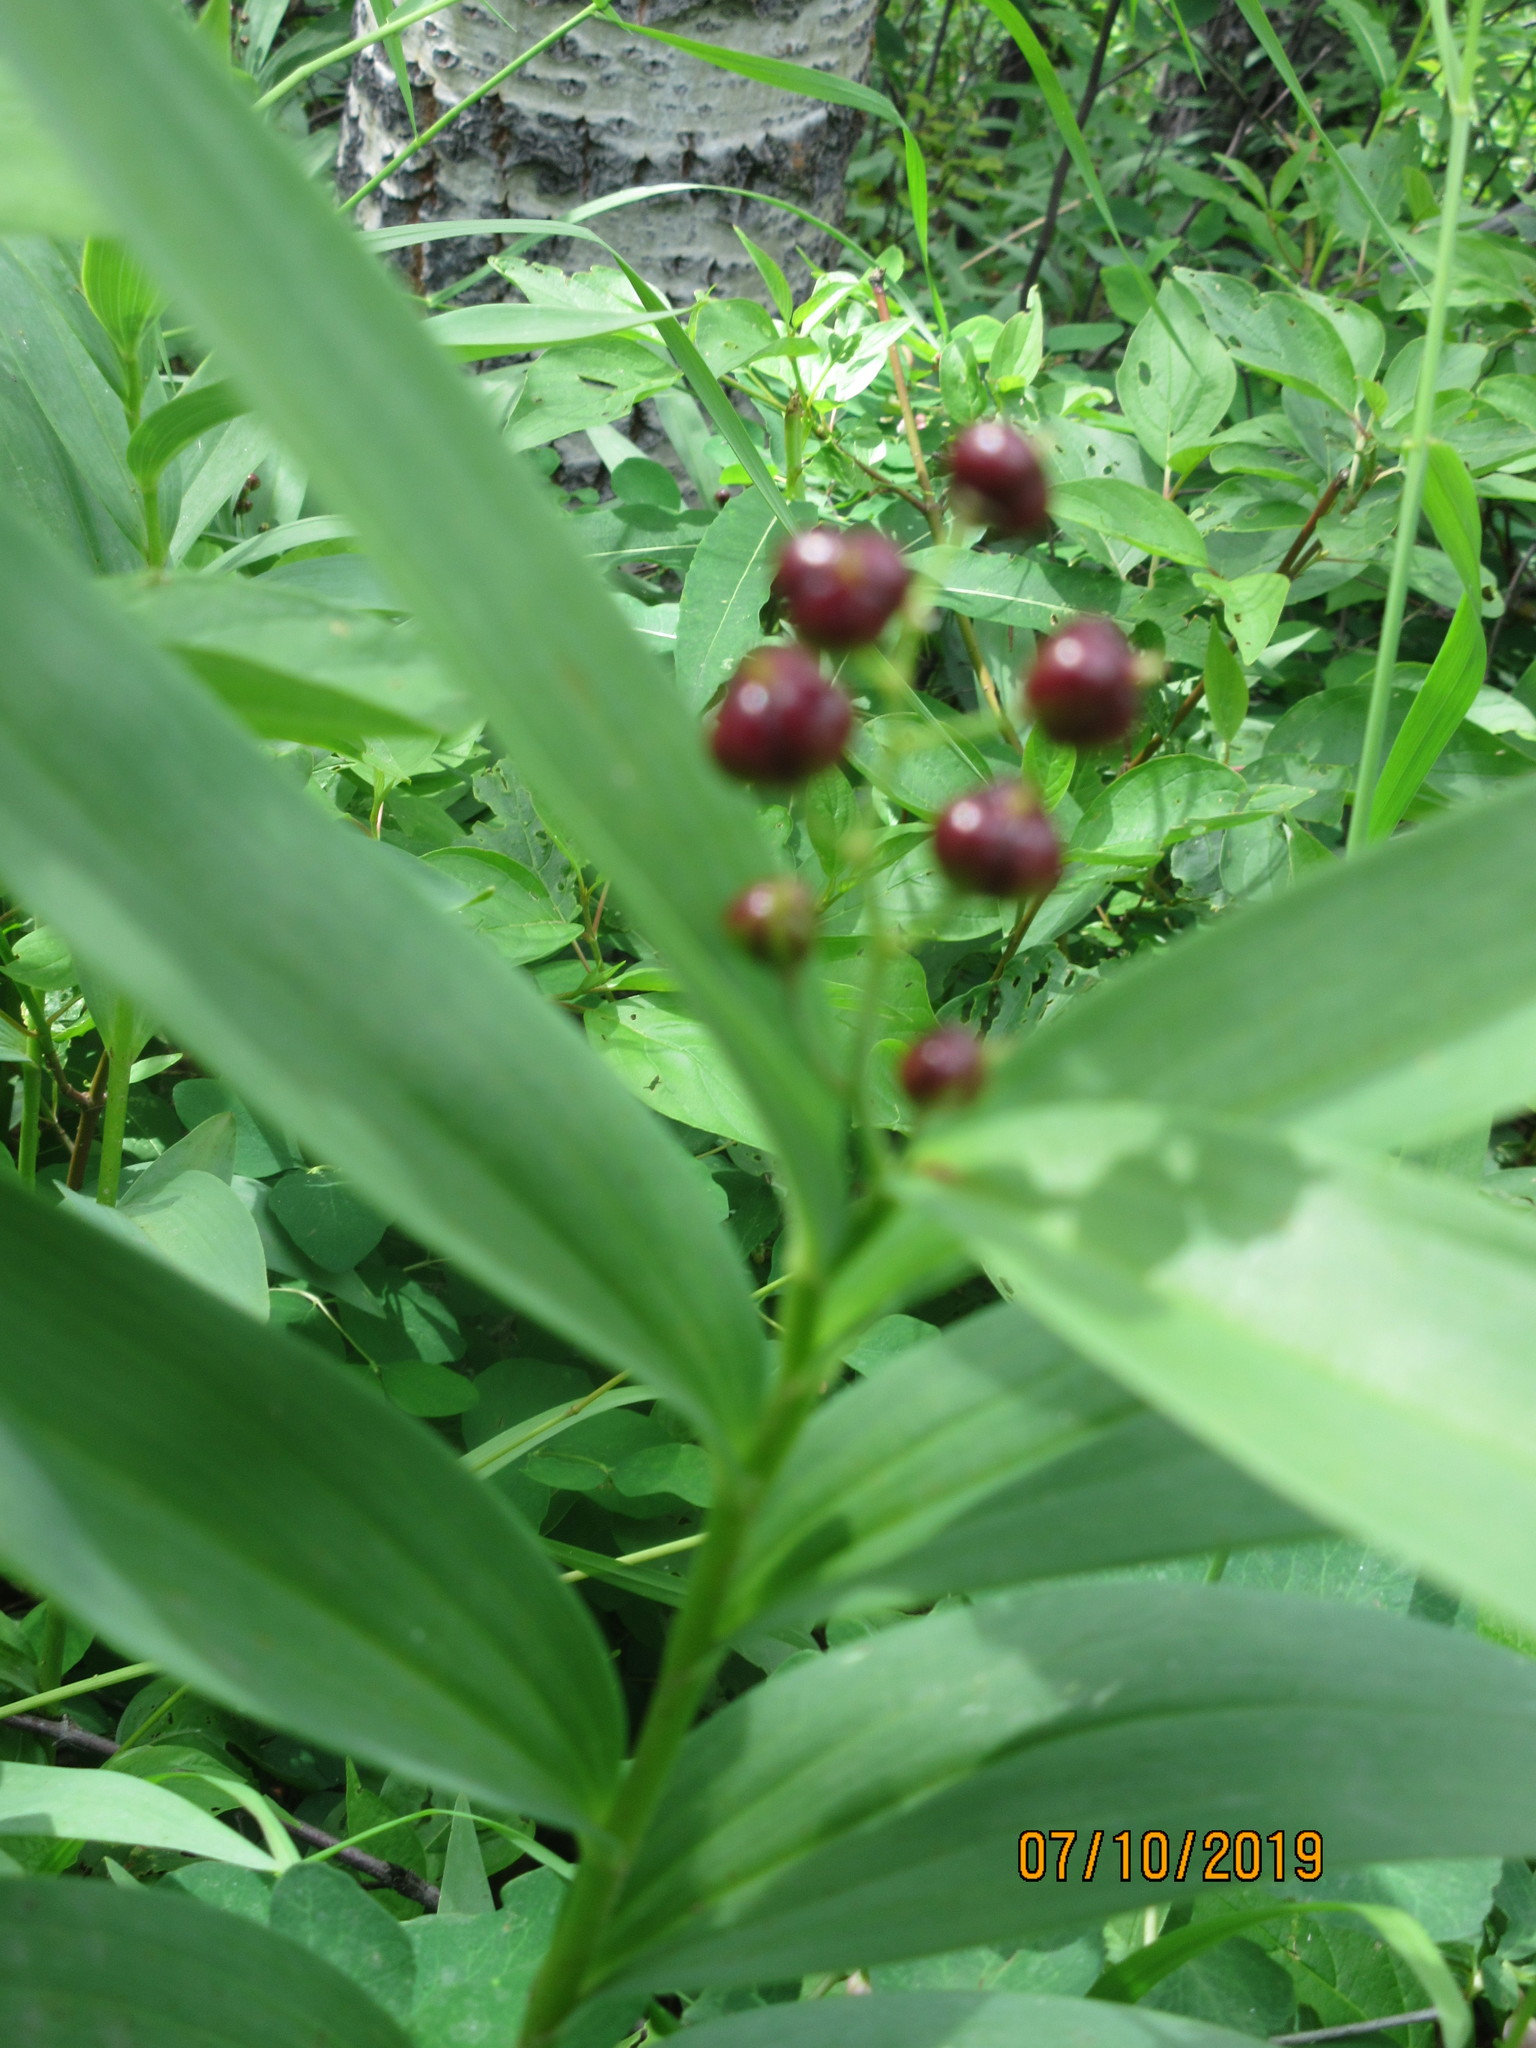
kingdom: Plantae
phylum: Tracheophyta
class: Liliopsida
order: Asparagales
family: Asparagaceae
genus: Maianthemum
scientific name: Maianthemum stellatum
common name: Little false solomon's seal
